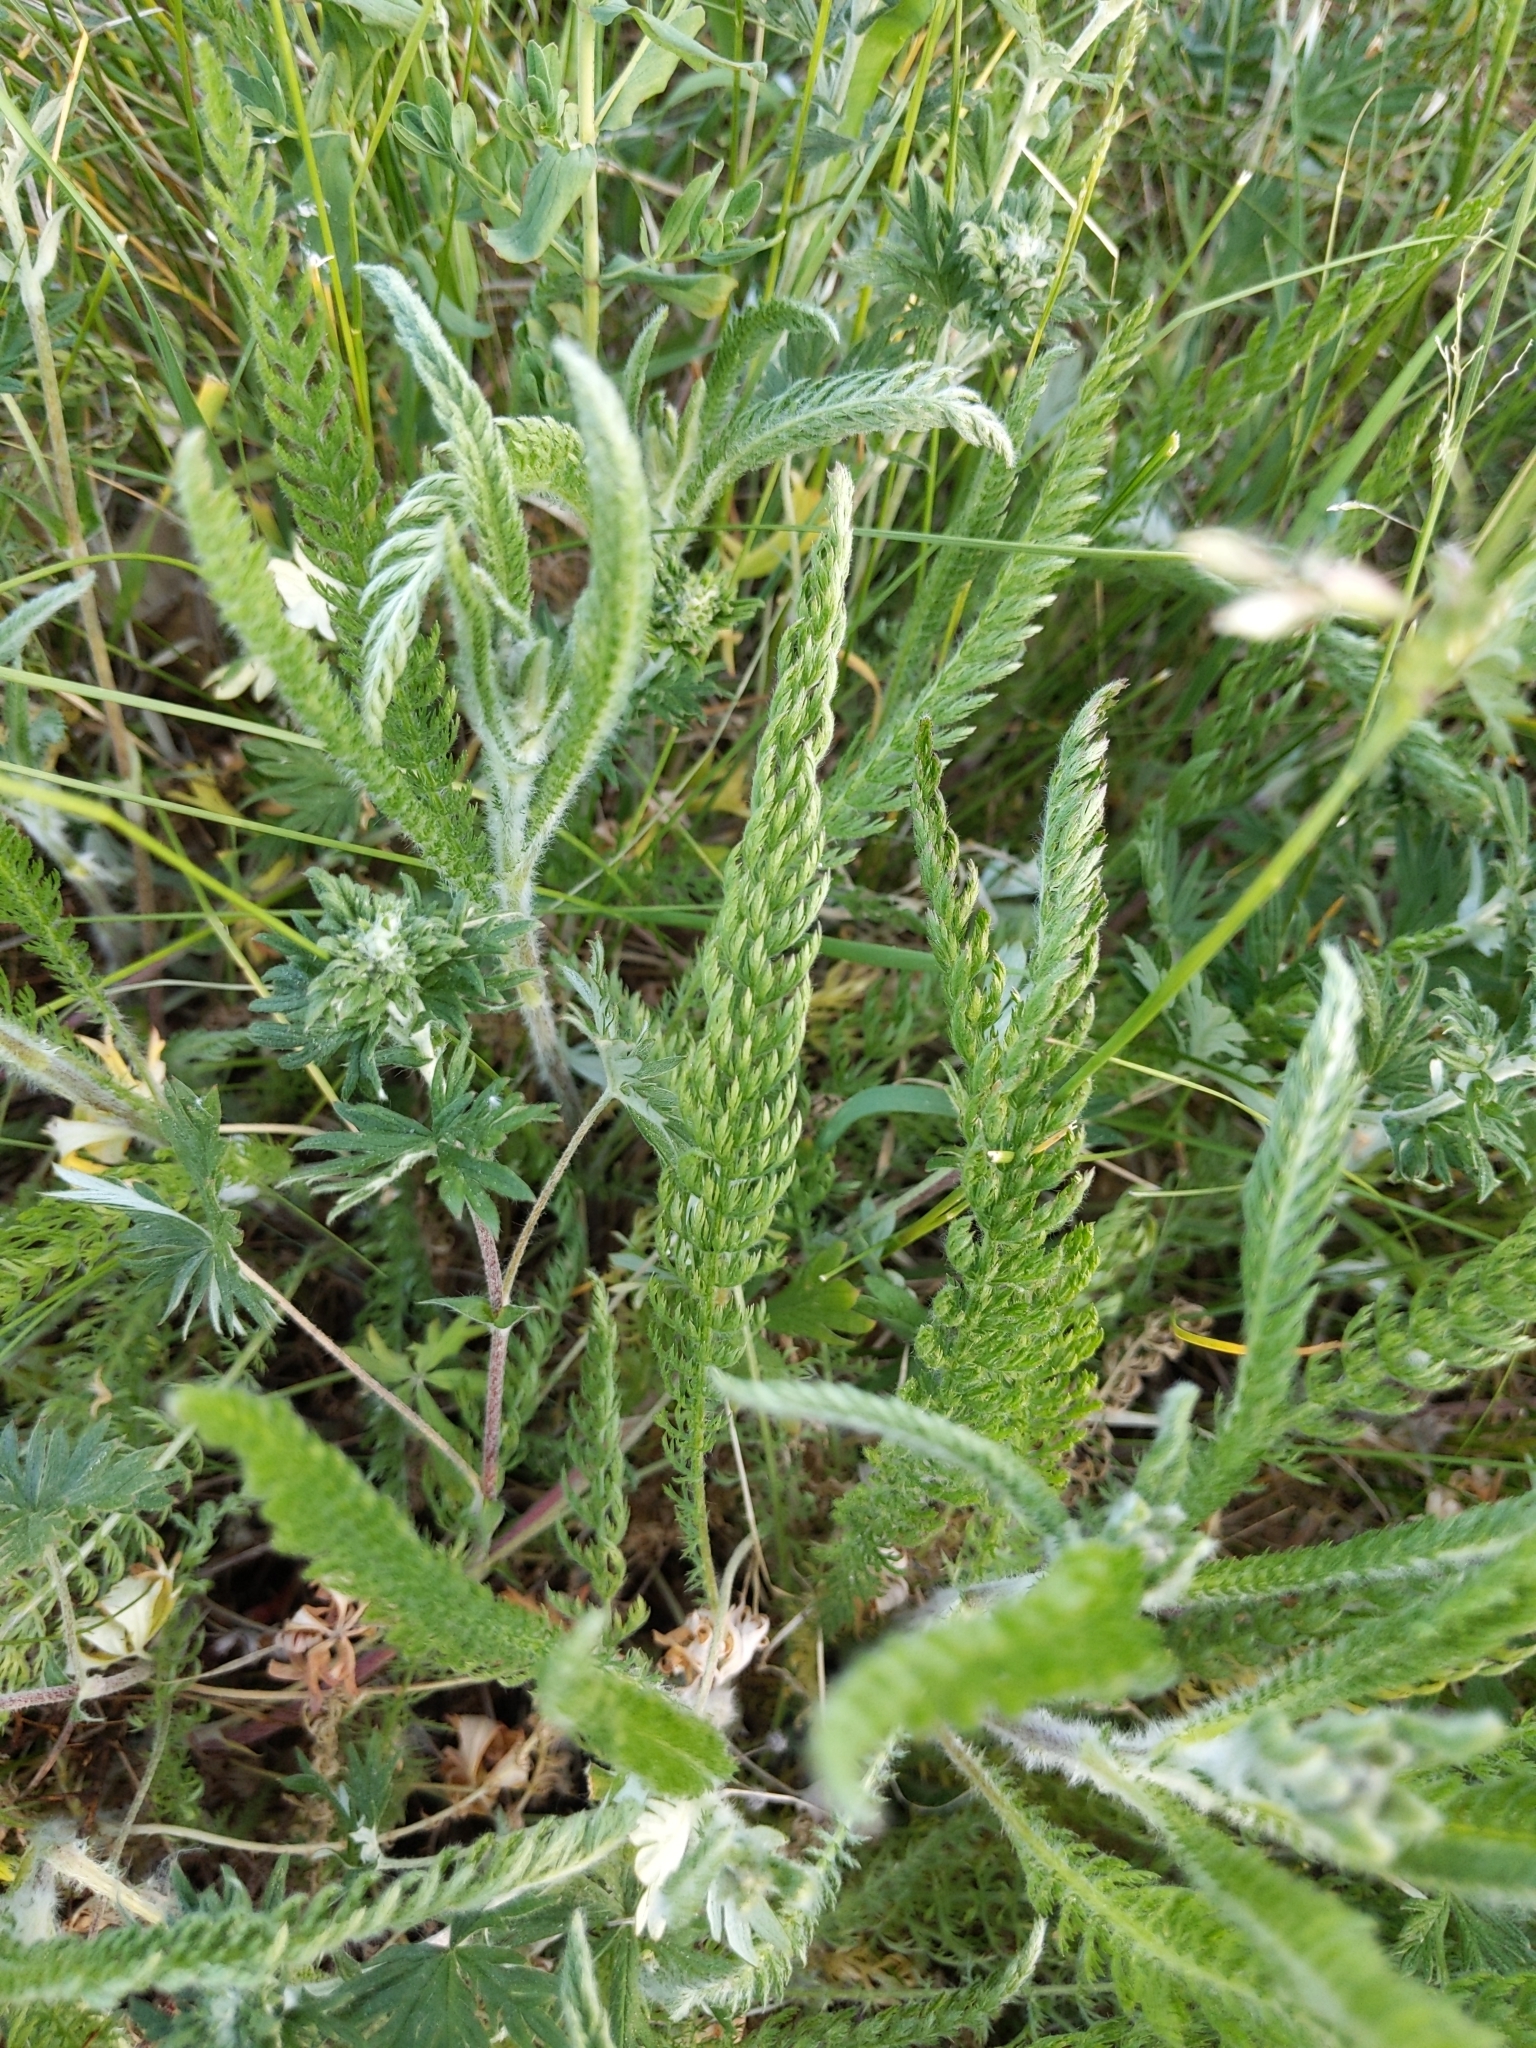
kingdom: Plantae
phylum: Tracheophyta
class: Magnoliopsida
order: Asterales
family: Asteraceae
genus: Achillea
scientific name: Achillea millefolium
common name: Yarrow
